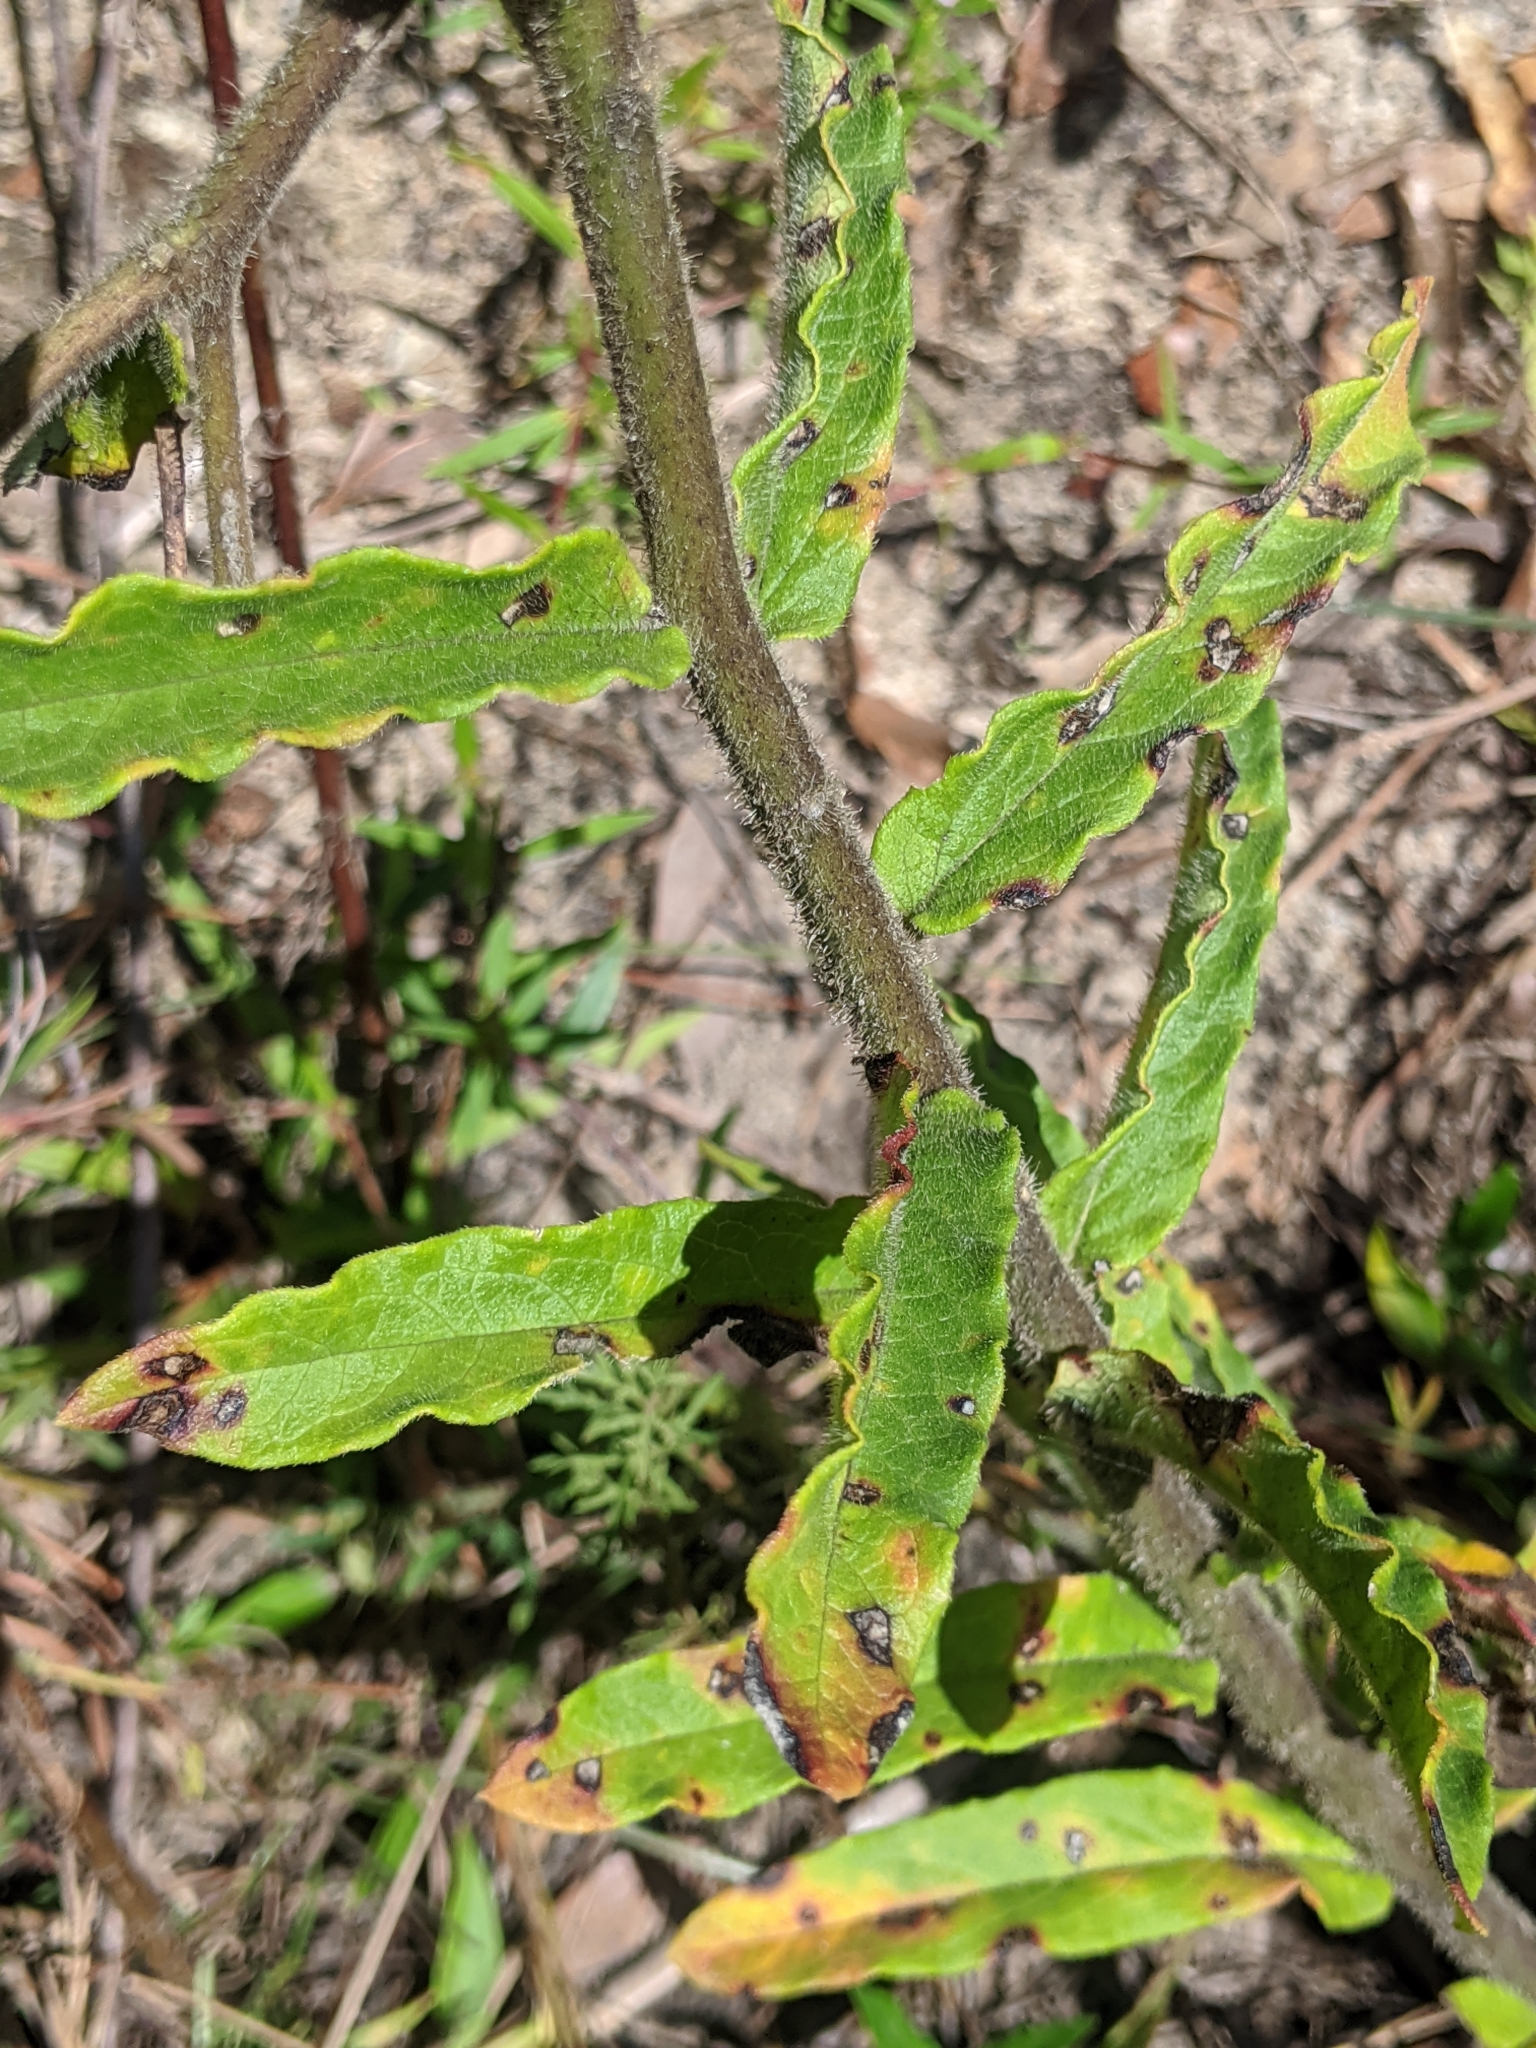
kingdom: Plantae
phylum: Tracheophyta
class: Magnoliopsida
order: Gentianales
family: Apocynaceae
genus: Asclepias
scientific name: Asclepias tuberosa
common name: Butterfly milkweed
